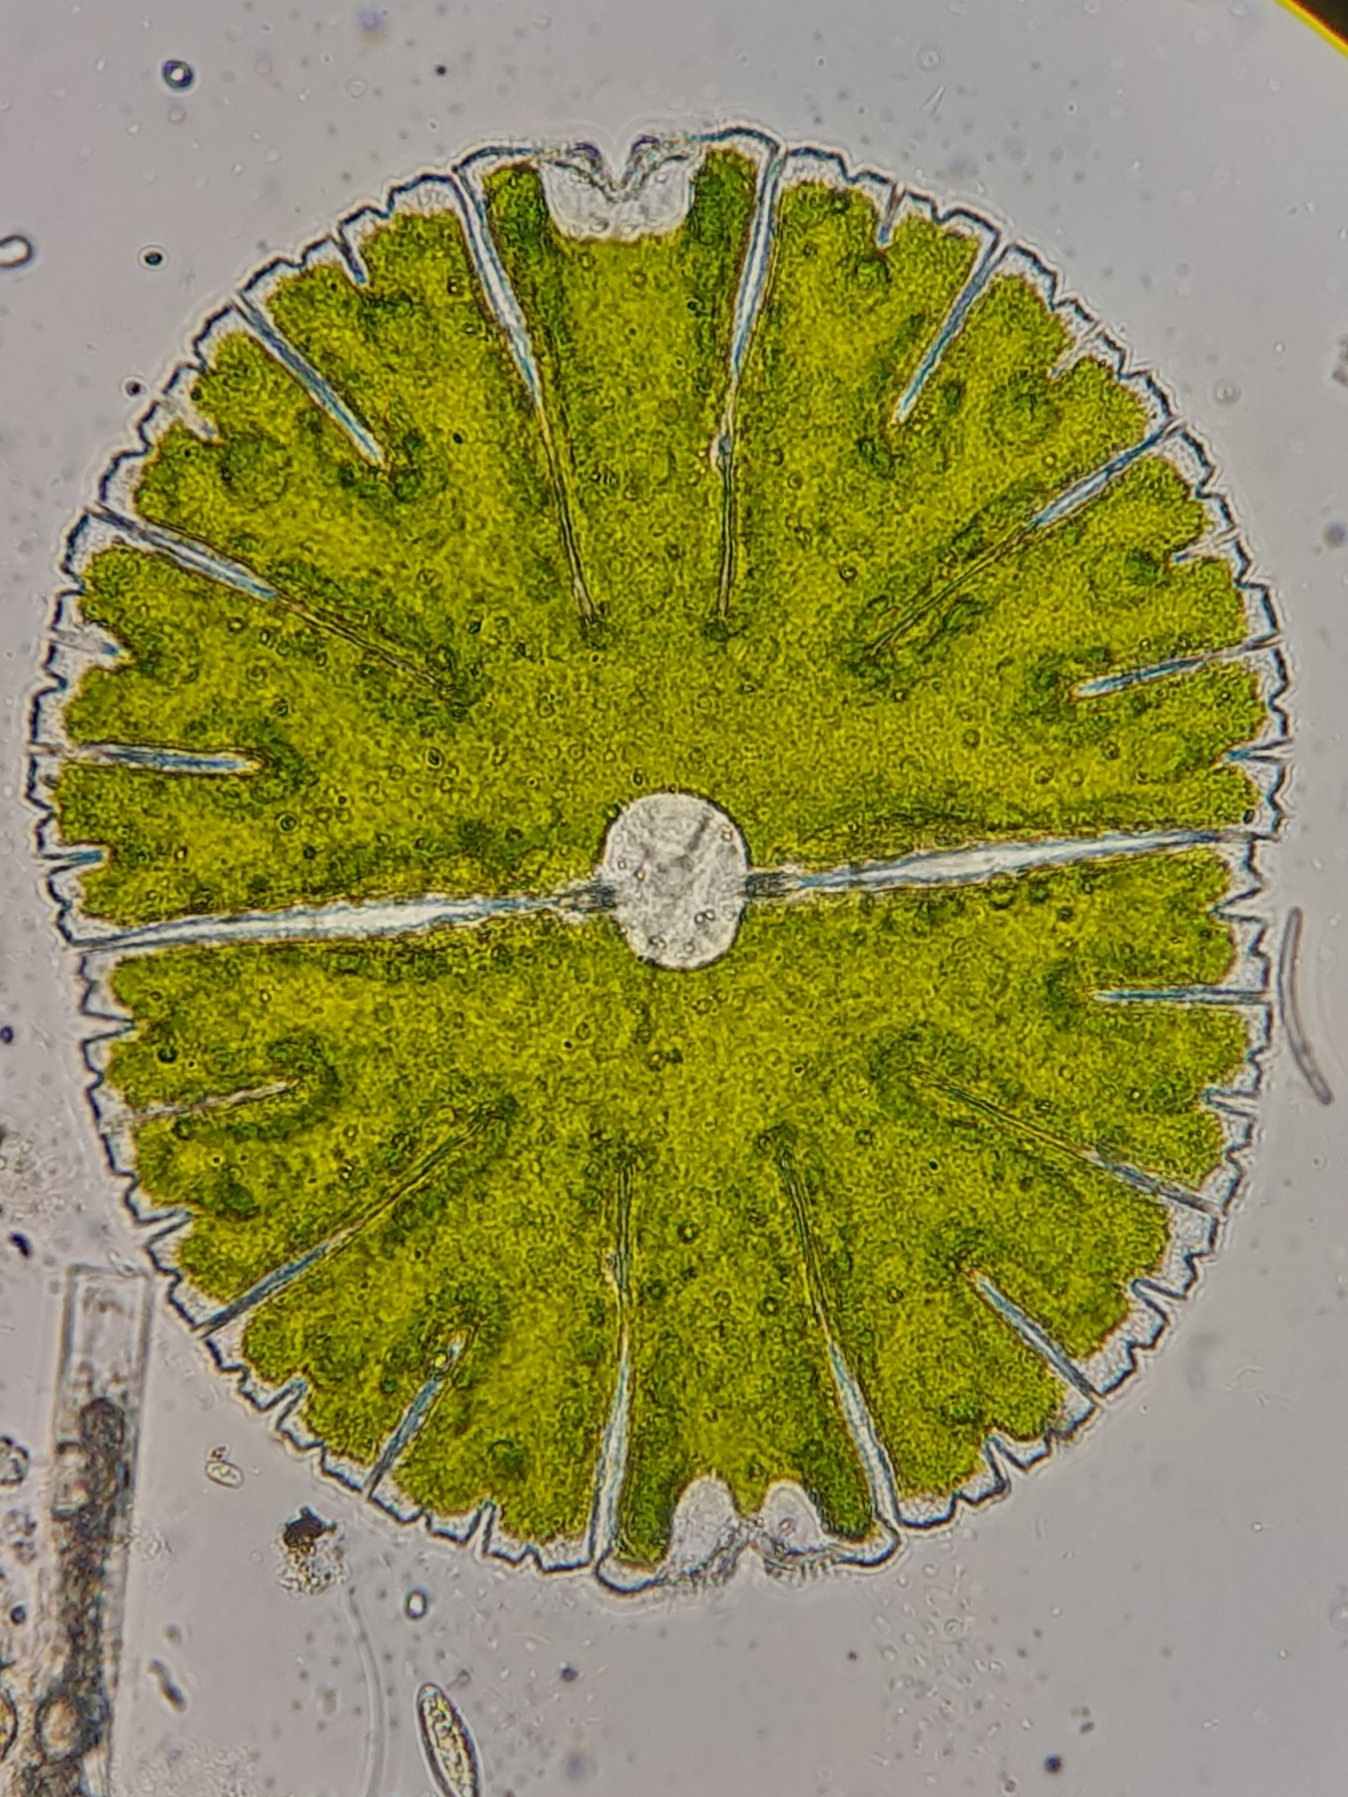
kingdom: Plantae
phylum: Charophyta
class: Conjugatophyceae
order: Desmidiales
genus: Micrasterias
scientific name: Micrasterias thomasiana
